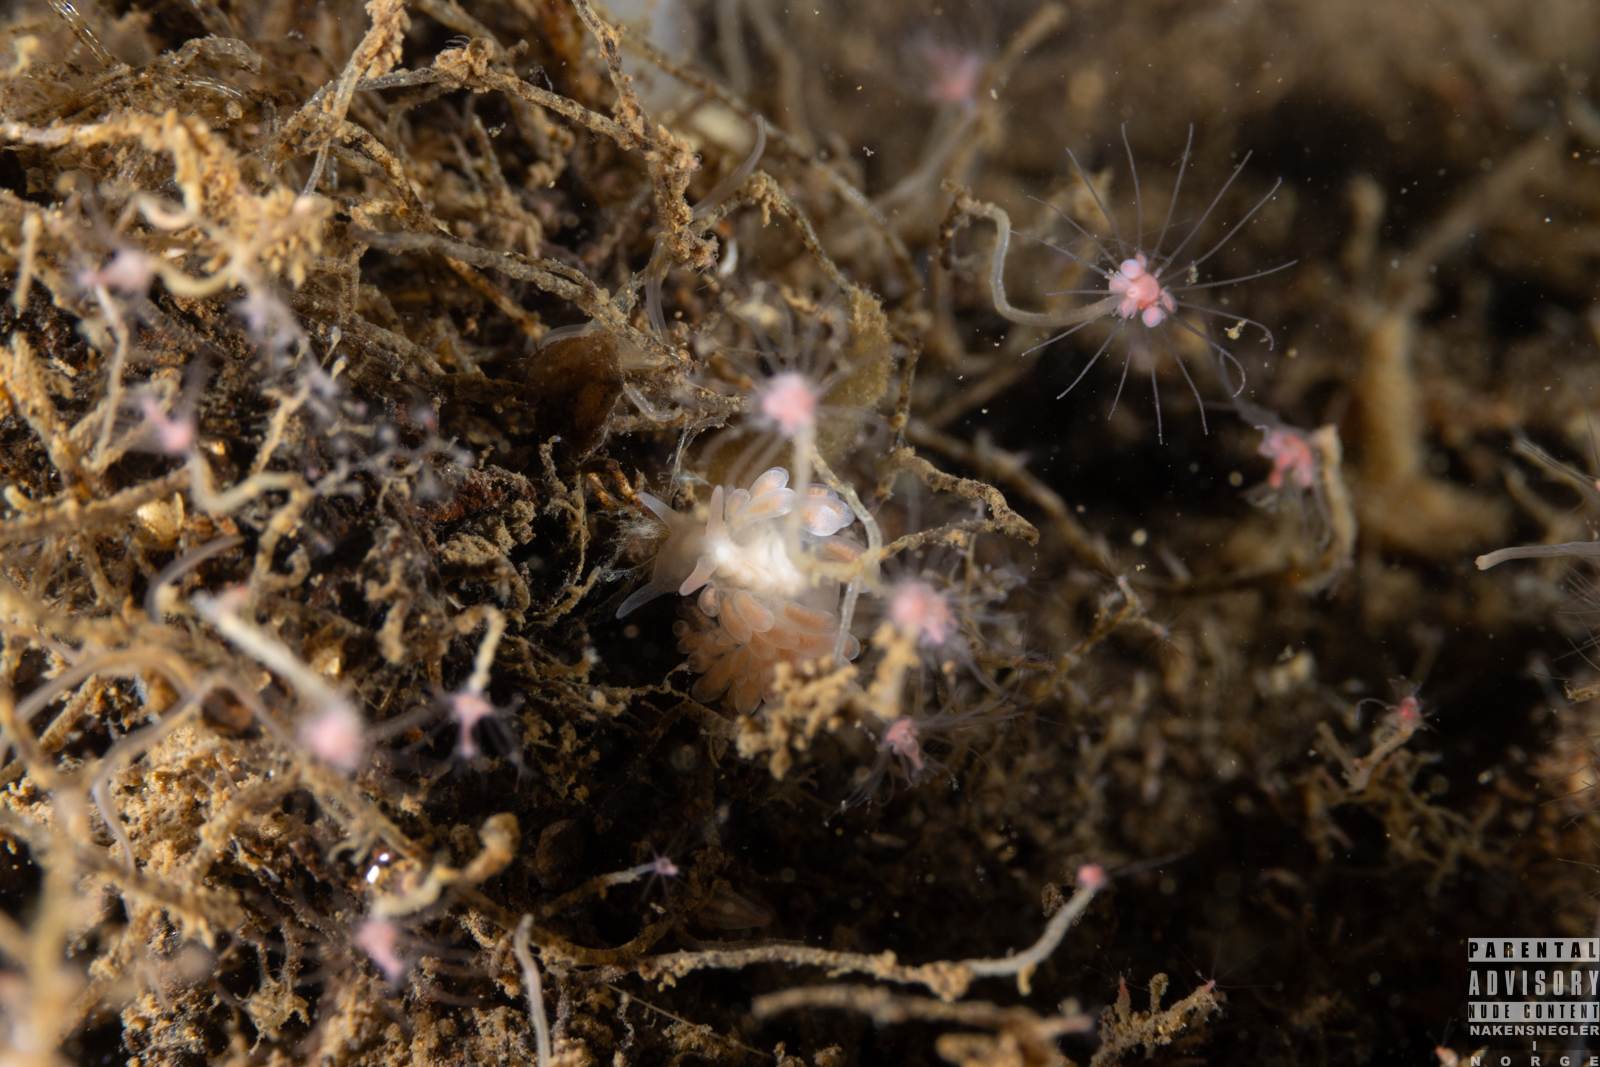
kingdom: Animalia
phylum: Mollusca
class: Gastropoda
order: Nudibranchia
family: Trinchesiidae
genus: Catriona
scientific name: Catriona aurantia
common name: Corange-tip cuthona
